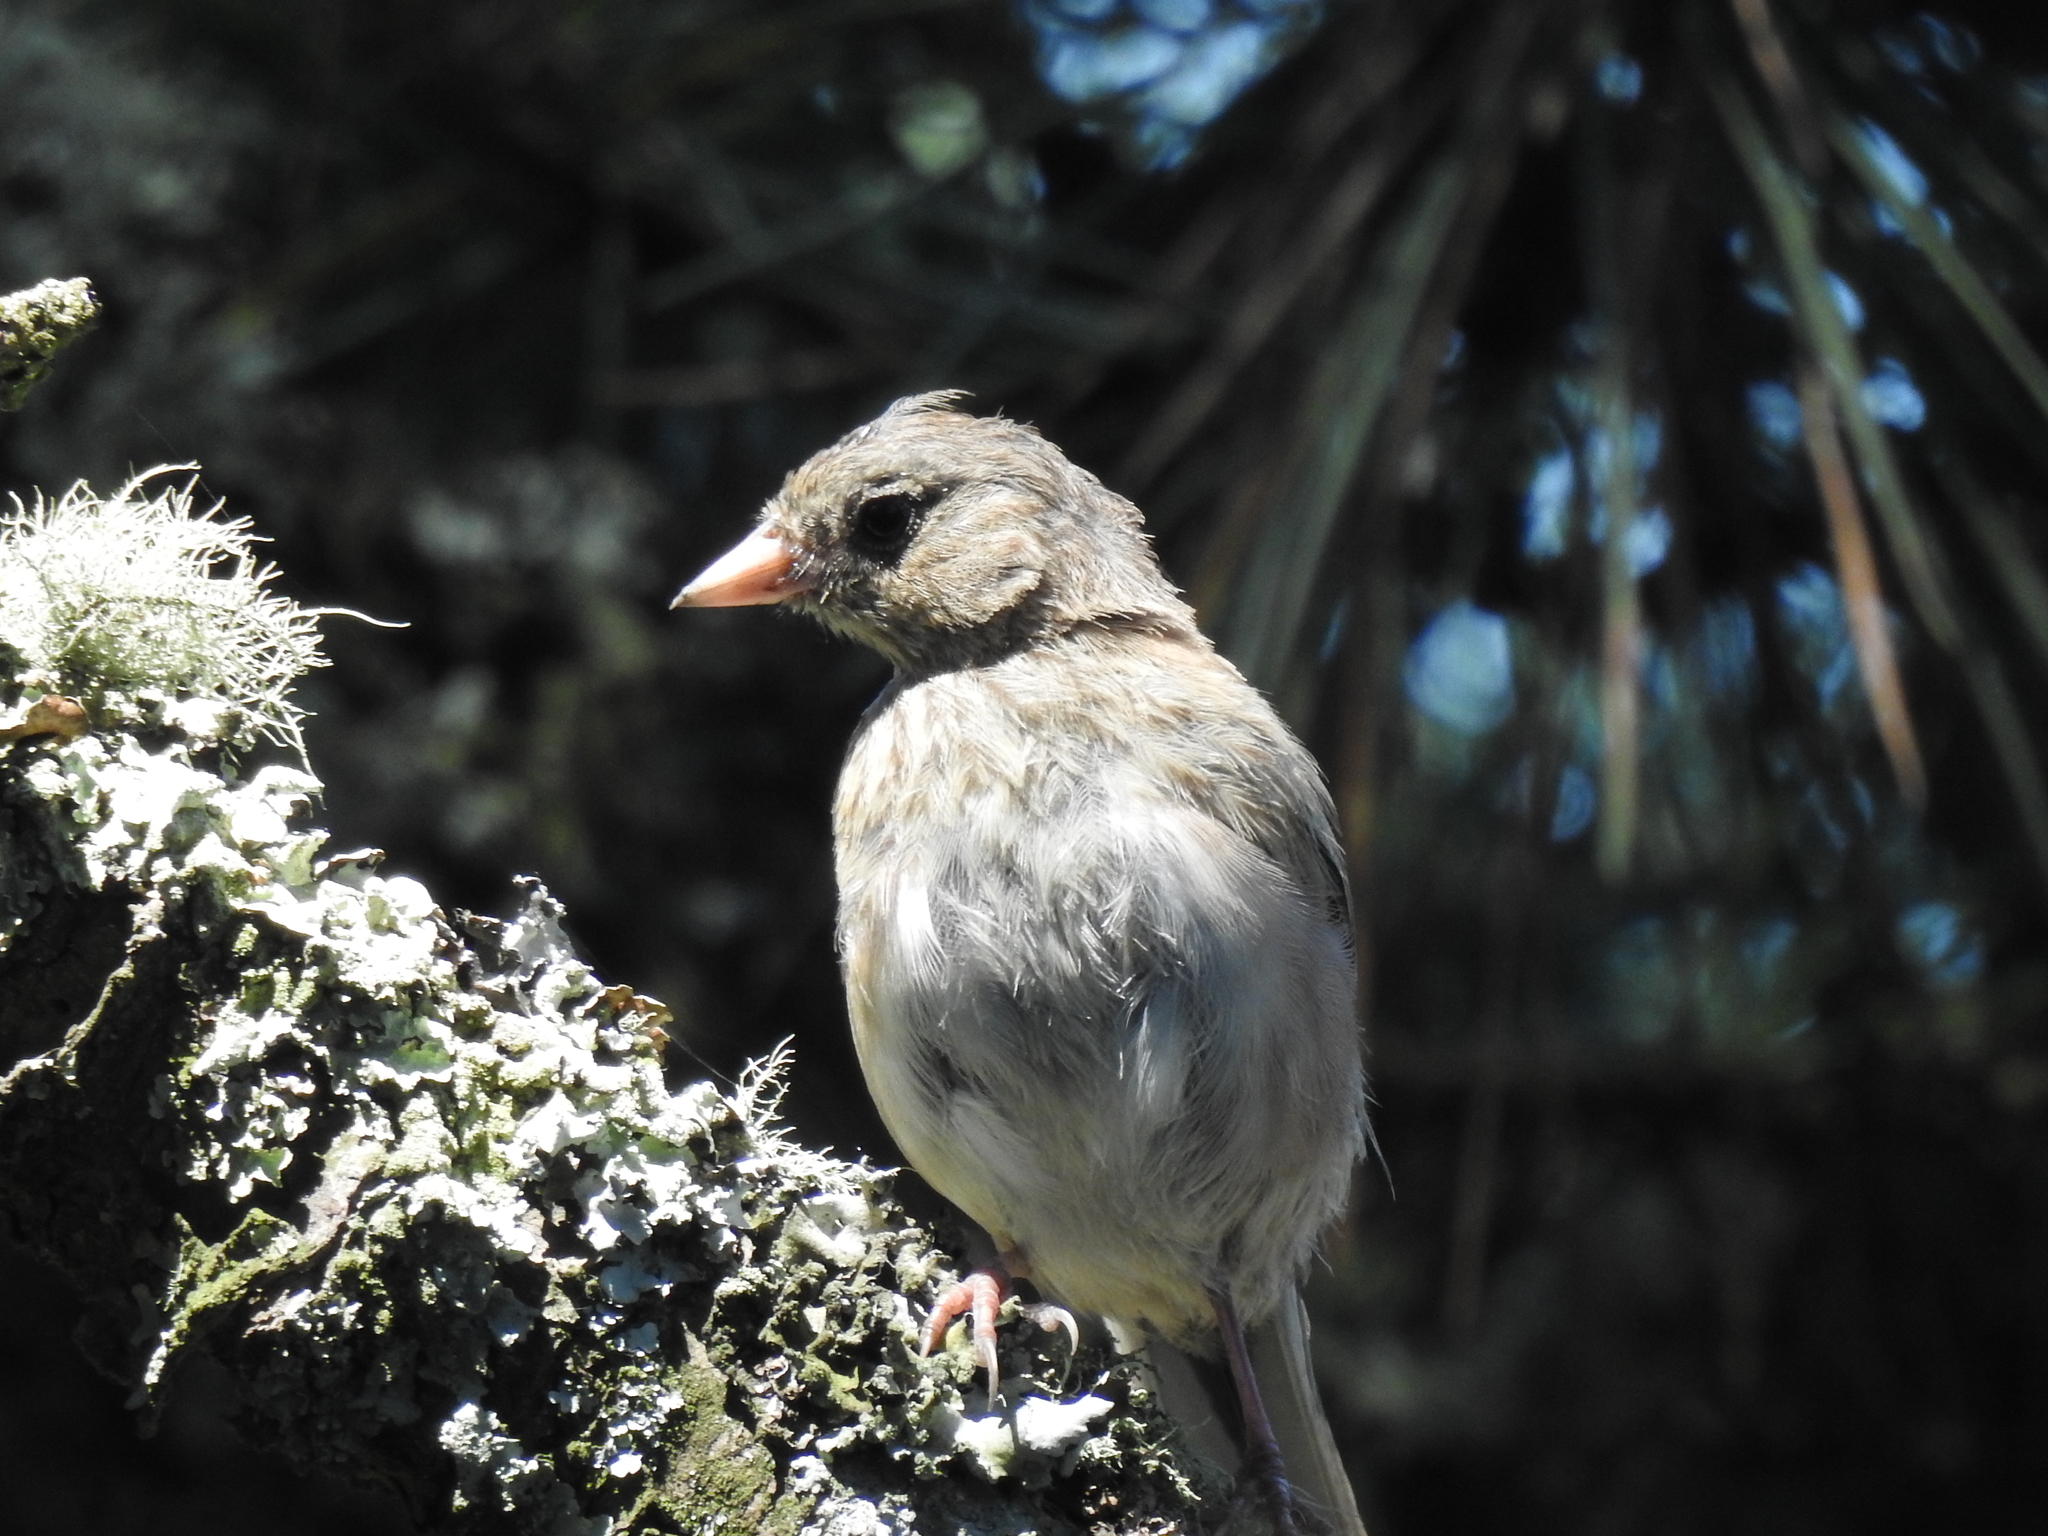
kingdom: Animalia
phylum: Chordata
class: Aves
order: Passeriformes
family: Passerellidae
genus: Junco
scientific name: Junco hyemalis
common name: Dark-eyed junco
